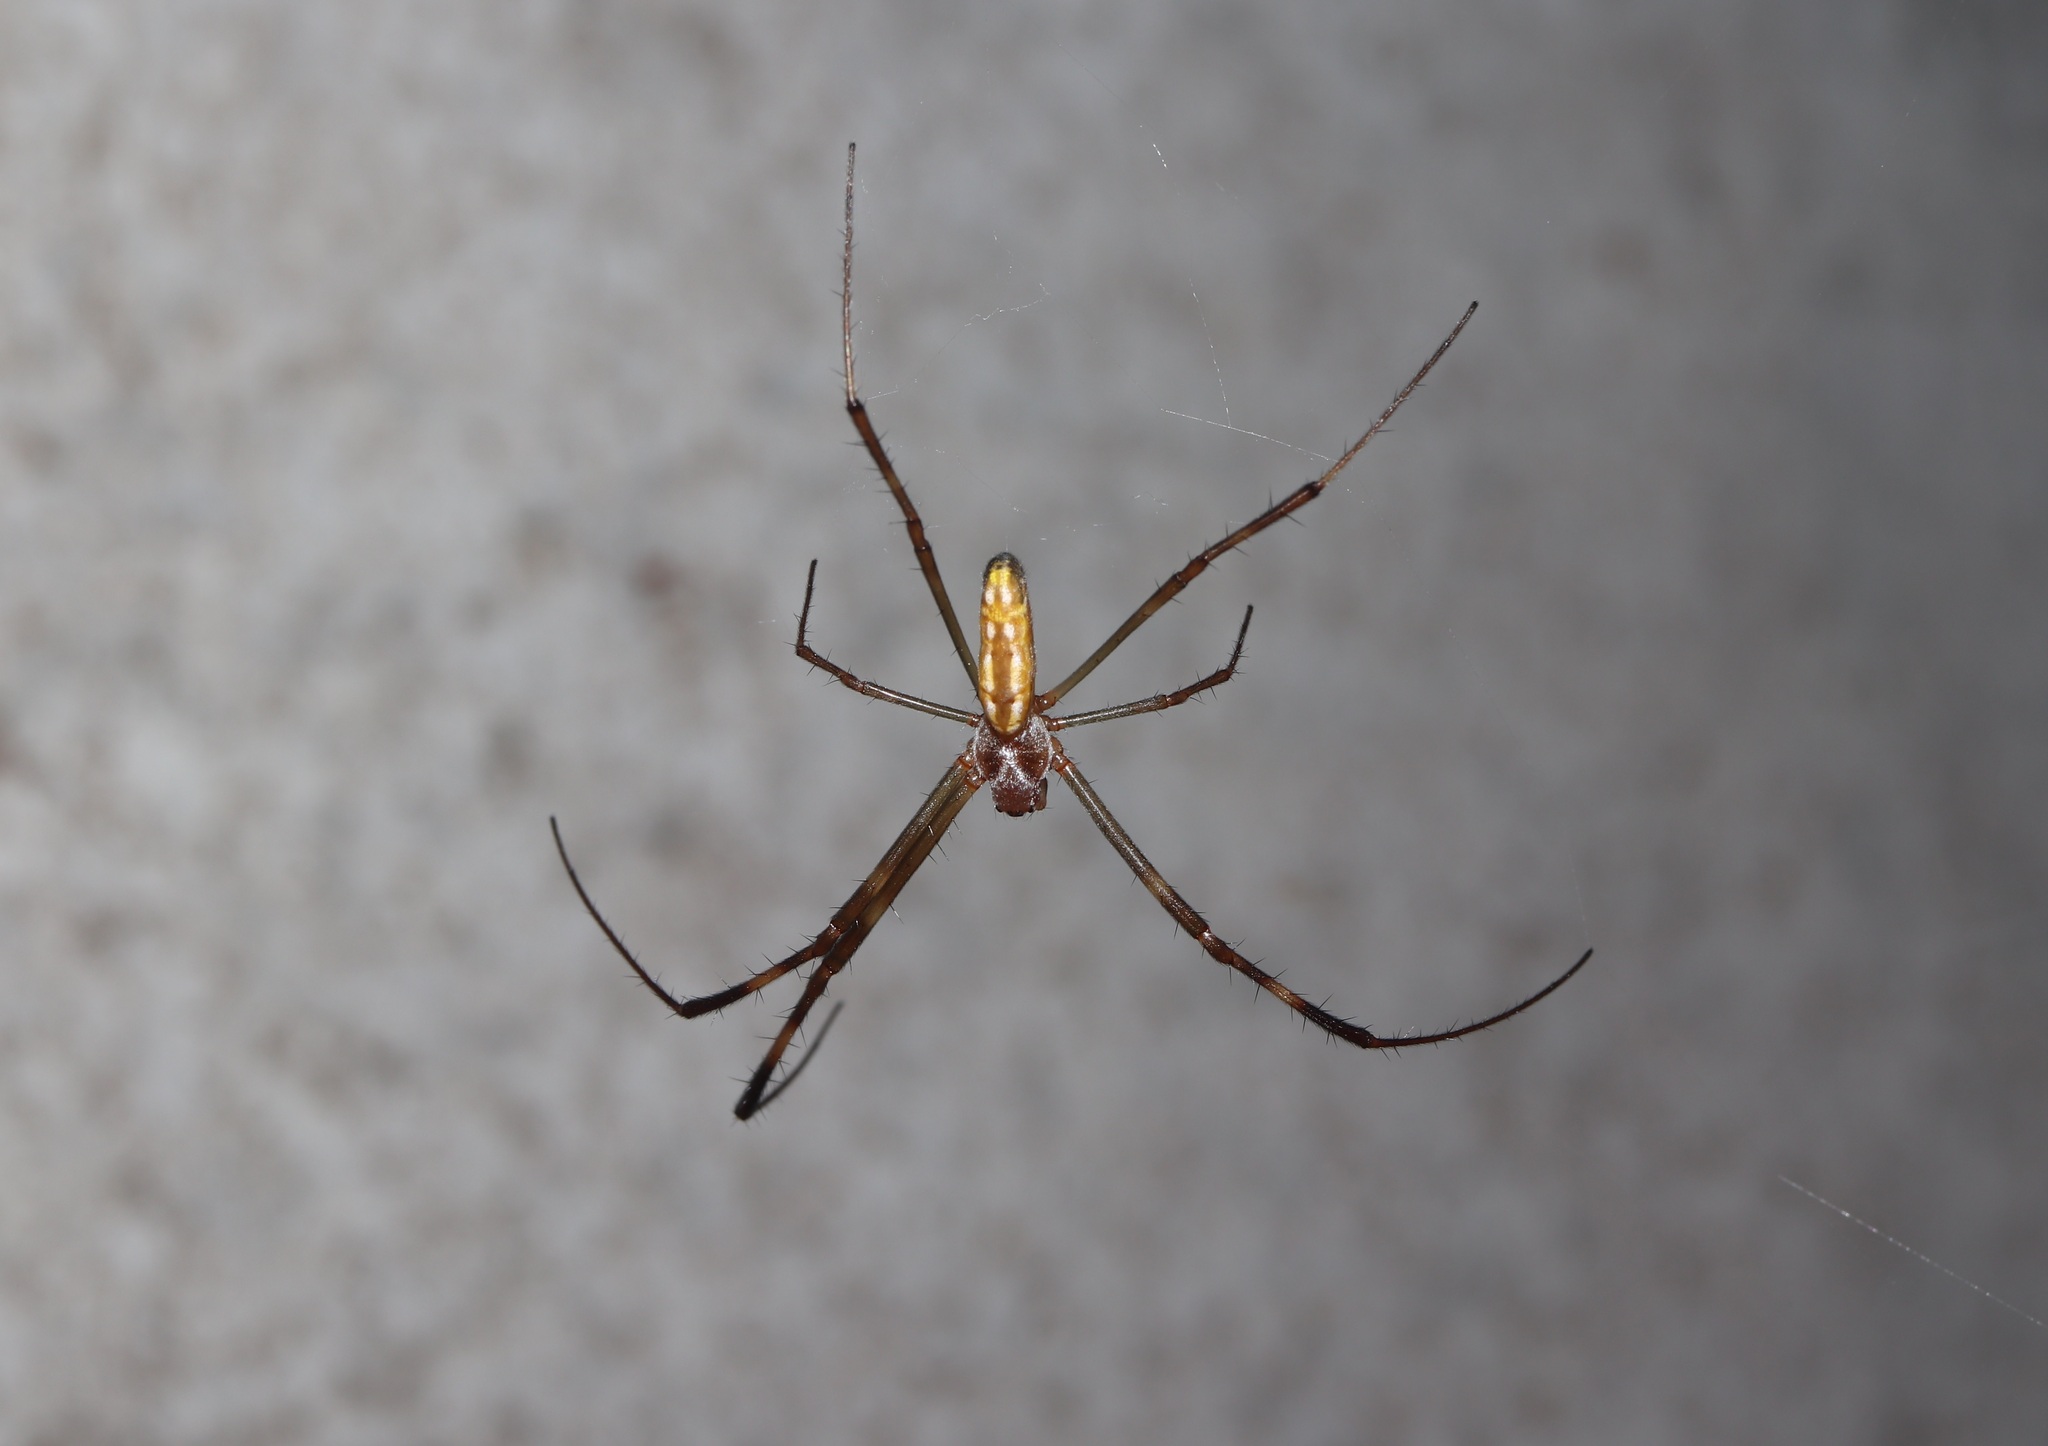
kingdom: Animalia
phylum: Arthropoda
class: Arachnida
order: Araneae
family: Araneidae
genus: Trichonephila
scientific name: Trichonephila clavata
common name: Jorō spider
